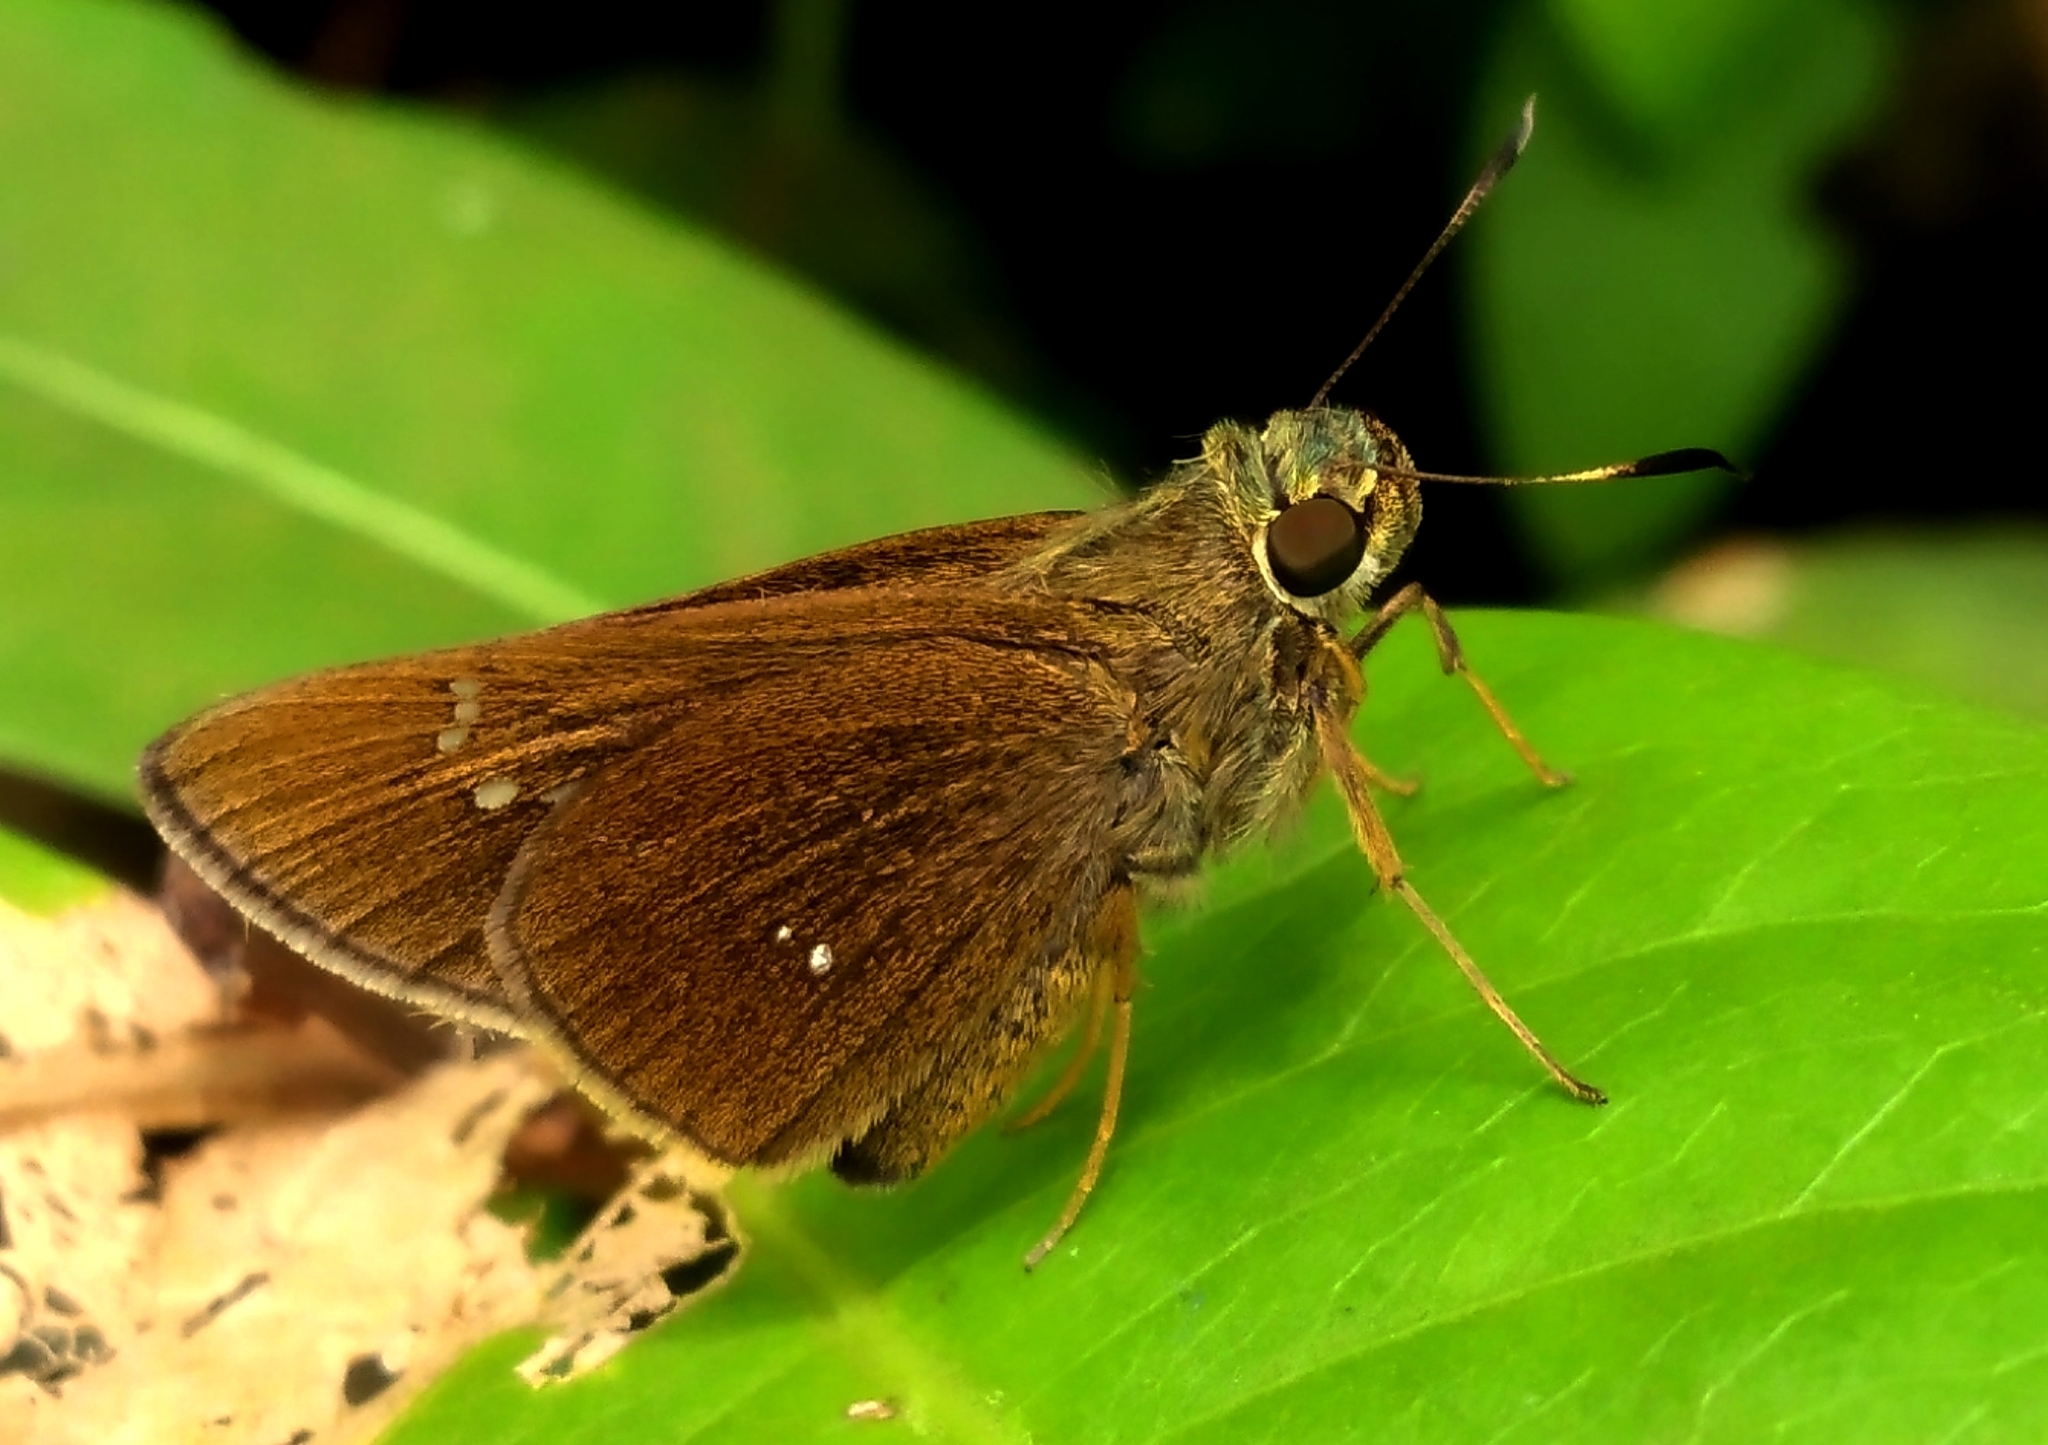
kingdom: Animalia
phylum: Arthropoda
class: Insecta
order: Lepidoptera
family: Hesperiidae
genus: Caltoris
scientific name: Caltoris kumara
